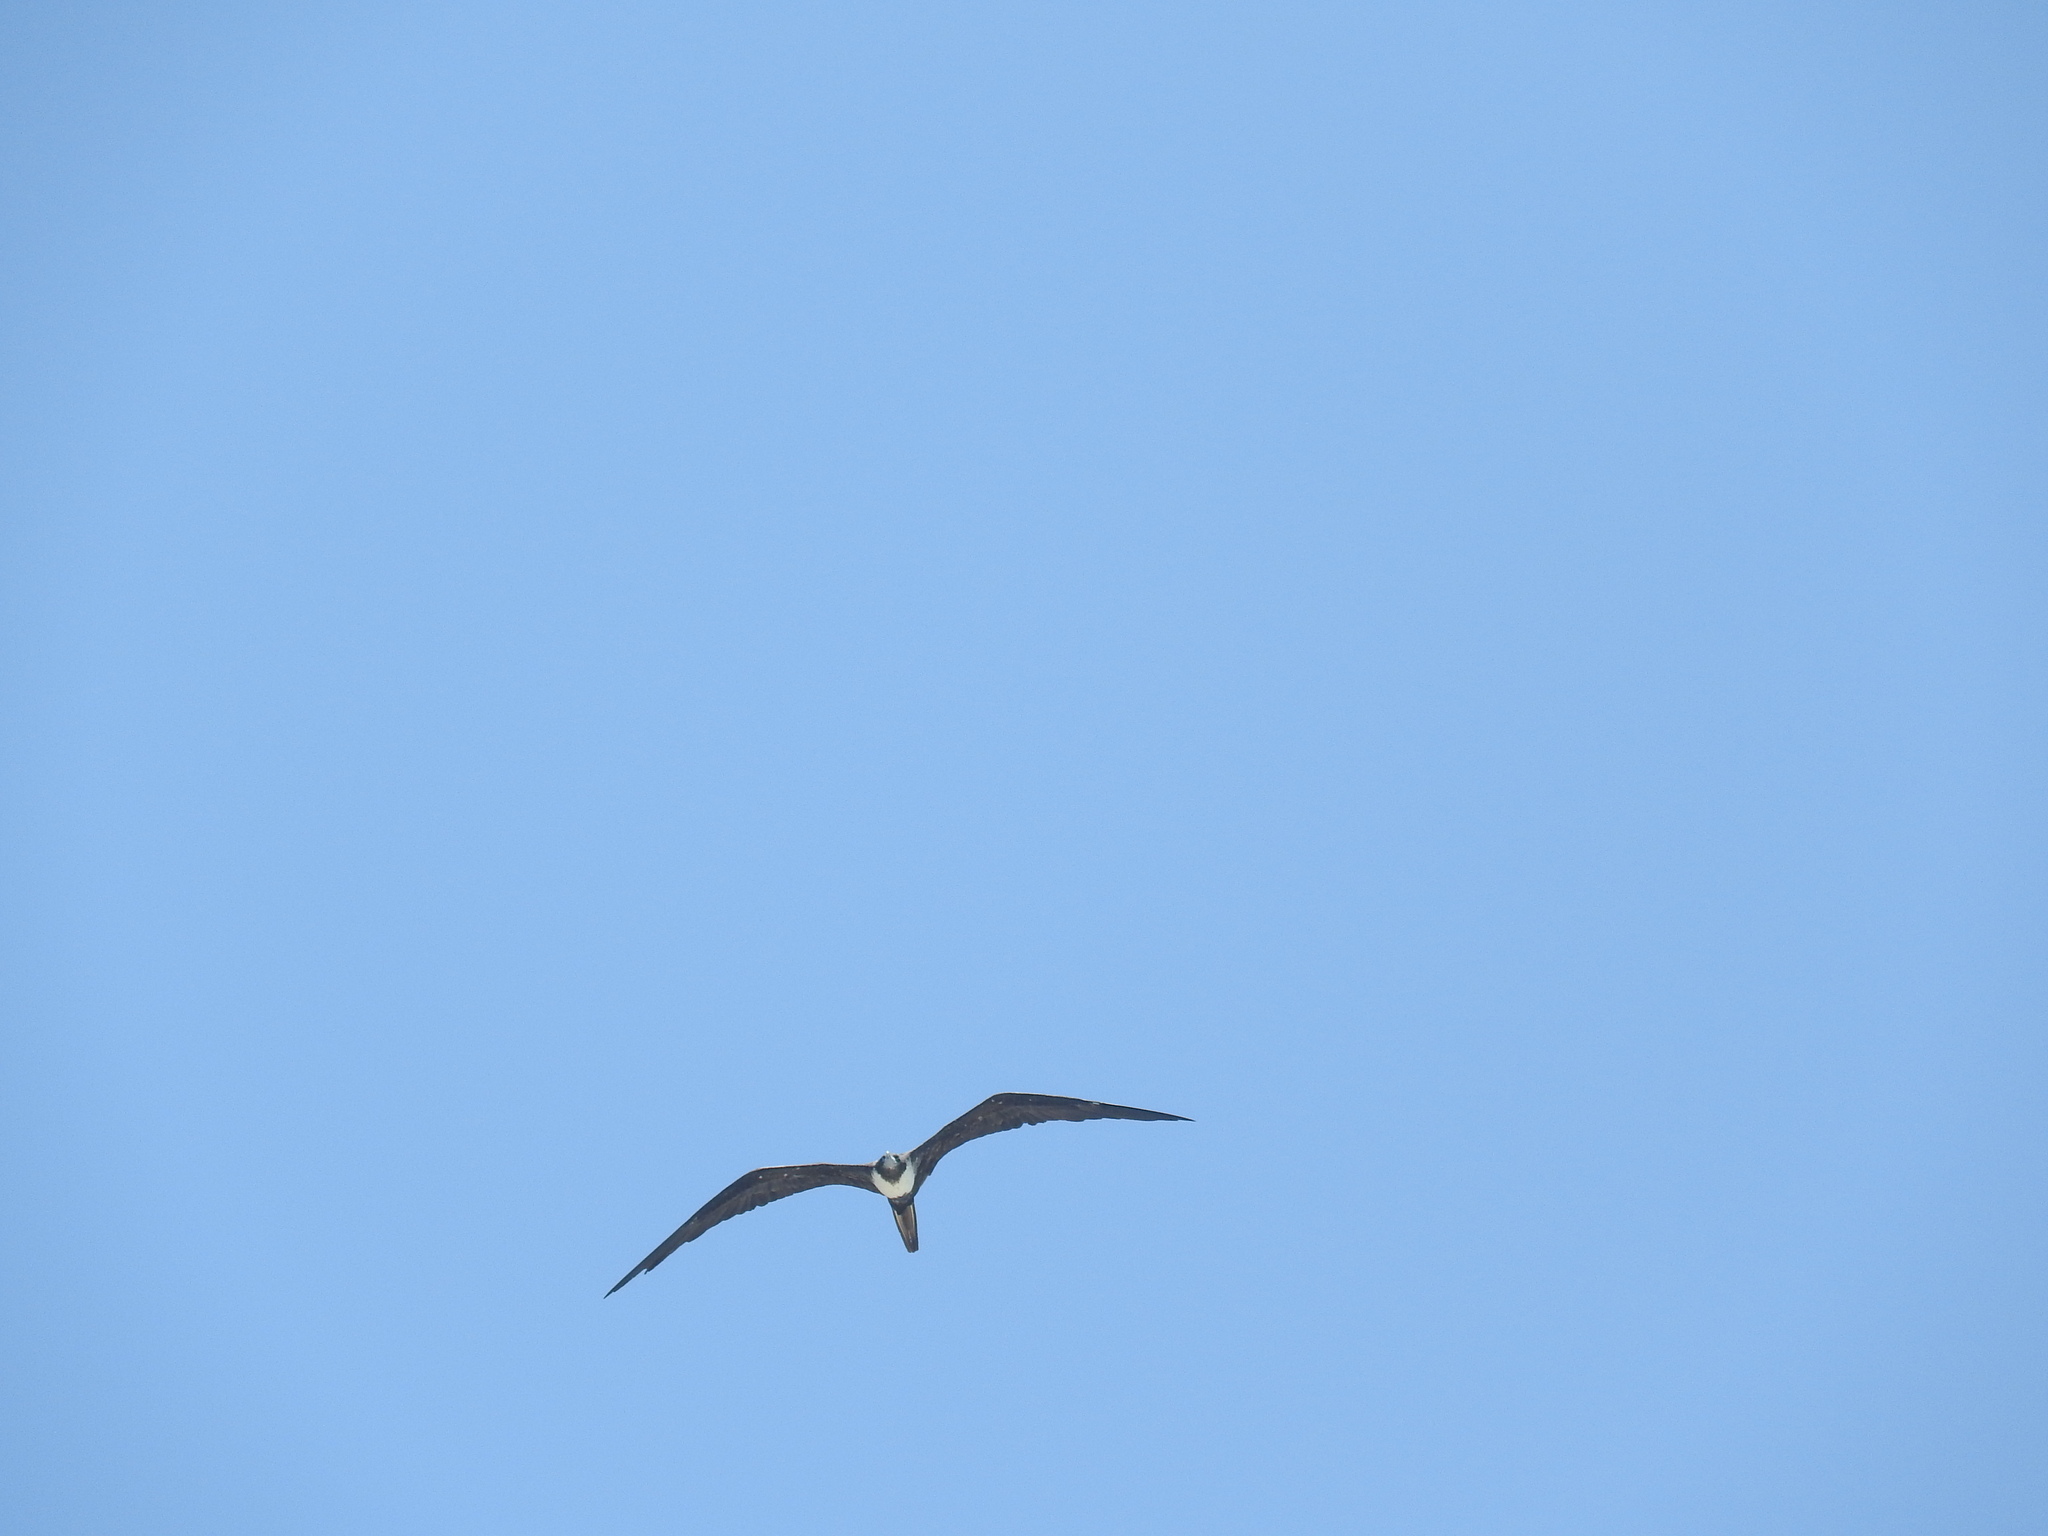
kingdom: Animalia
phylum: Chordata
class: Aves
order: Suliformes
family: Fregatidae
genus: Fregata
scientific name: Fregata magnificens
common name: Magnificent frigatebird
